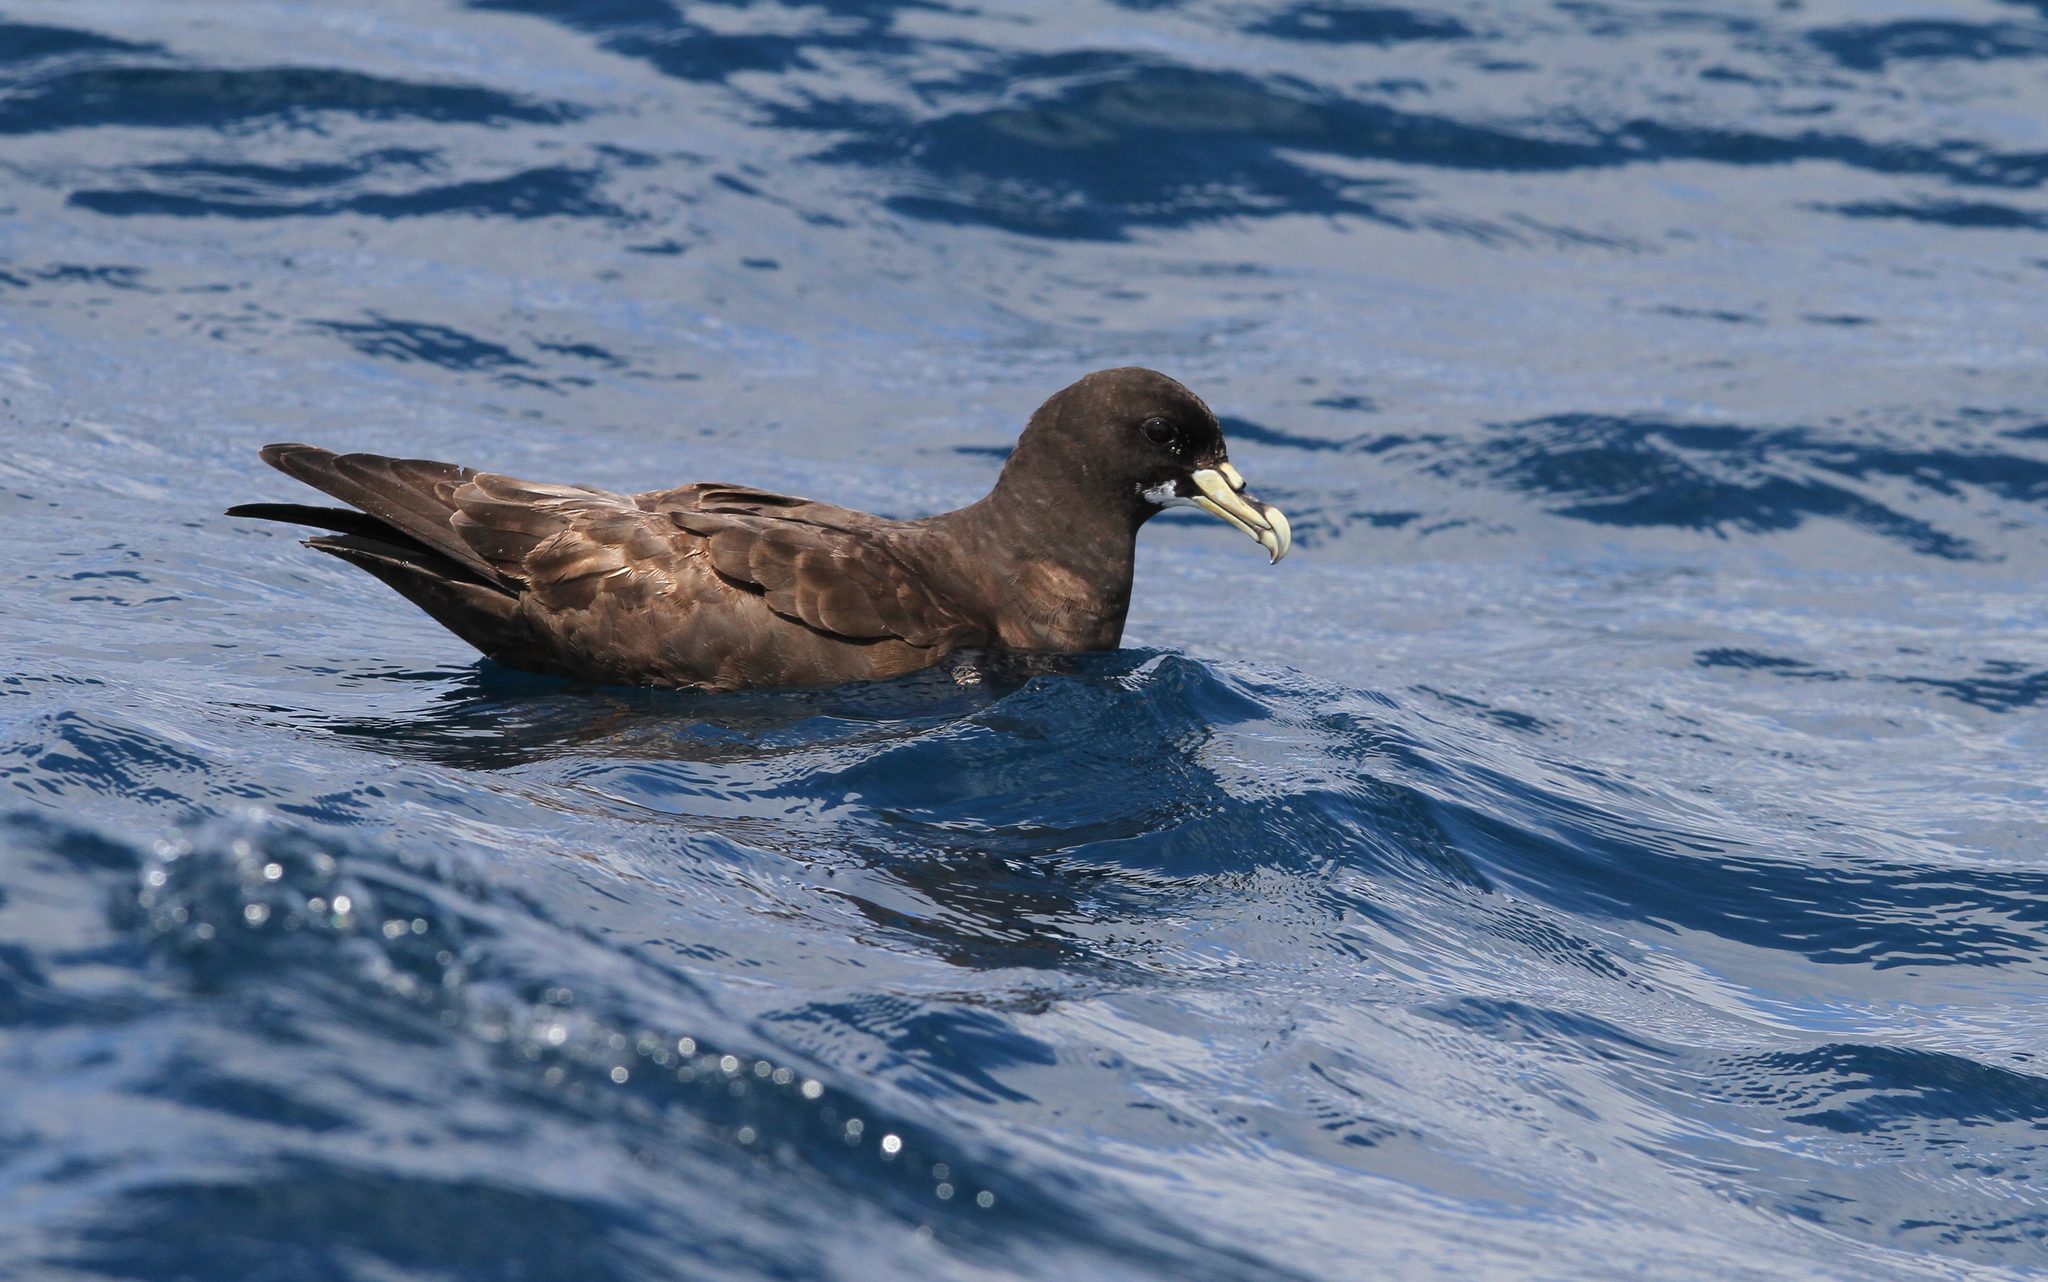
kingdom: Animalia
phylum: Chordata
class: Aves
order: Procellariiformes
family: Procellariidae
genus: Procellaria
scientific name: Procellaria aequinoctialis
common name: White-chinned petrel
